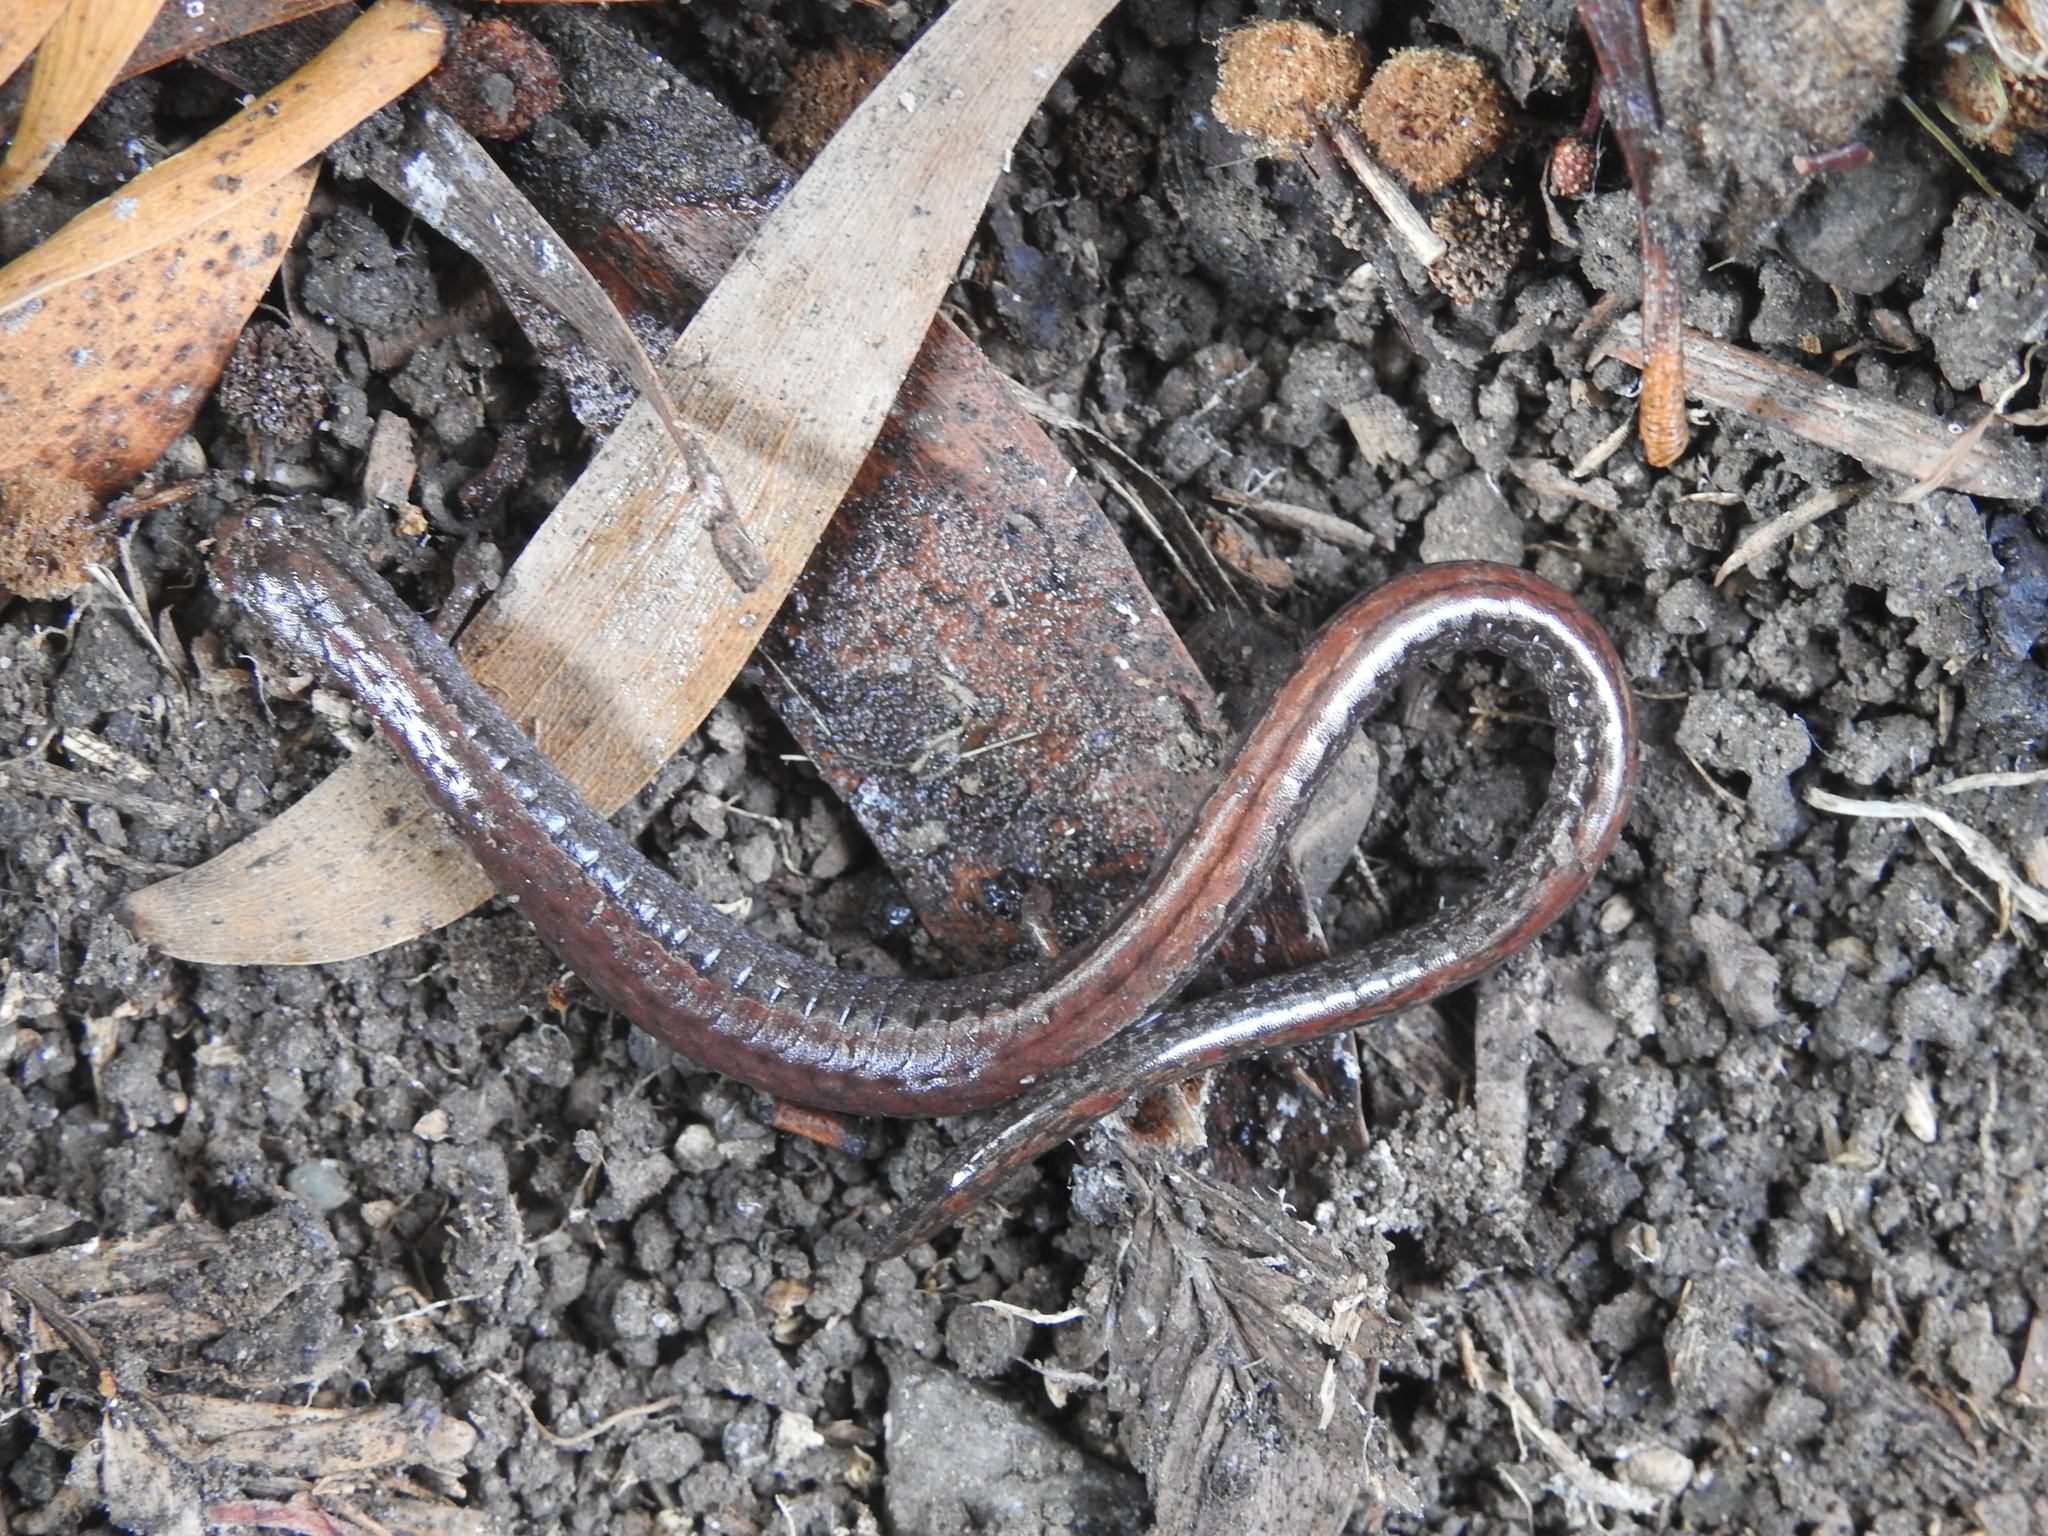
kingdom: Animalia
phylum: Chordata
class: Amphibia
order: Caudata
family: Plethodontidae
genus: Batrachoseps
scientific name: Batrachoseps attenuatus
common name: California slender salamander
